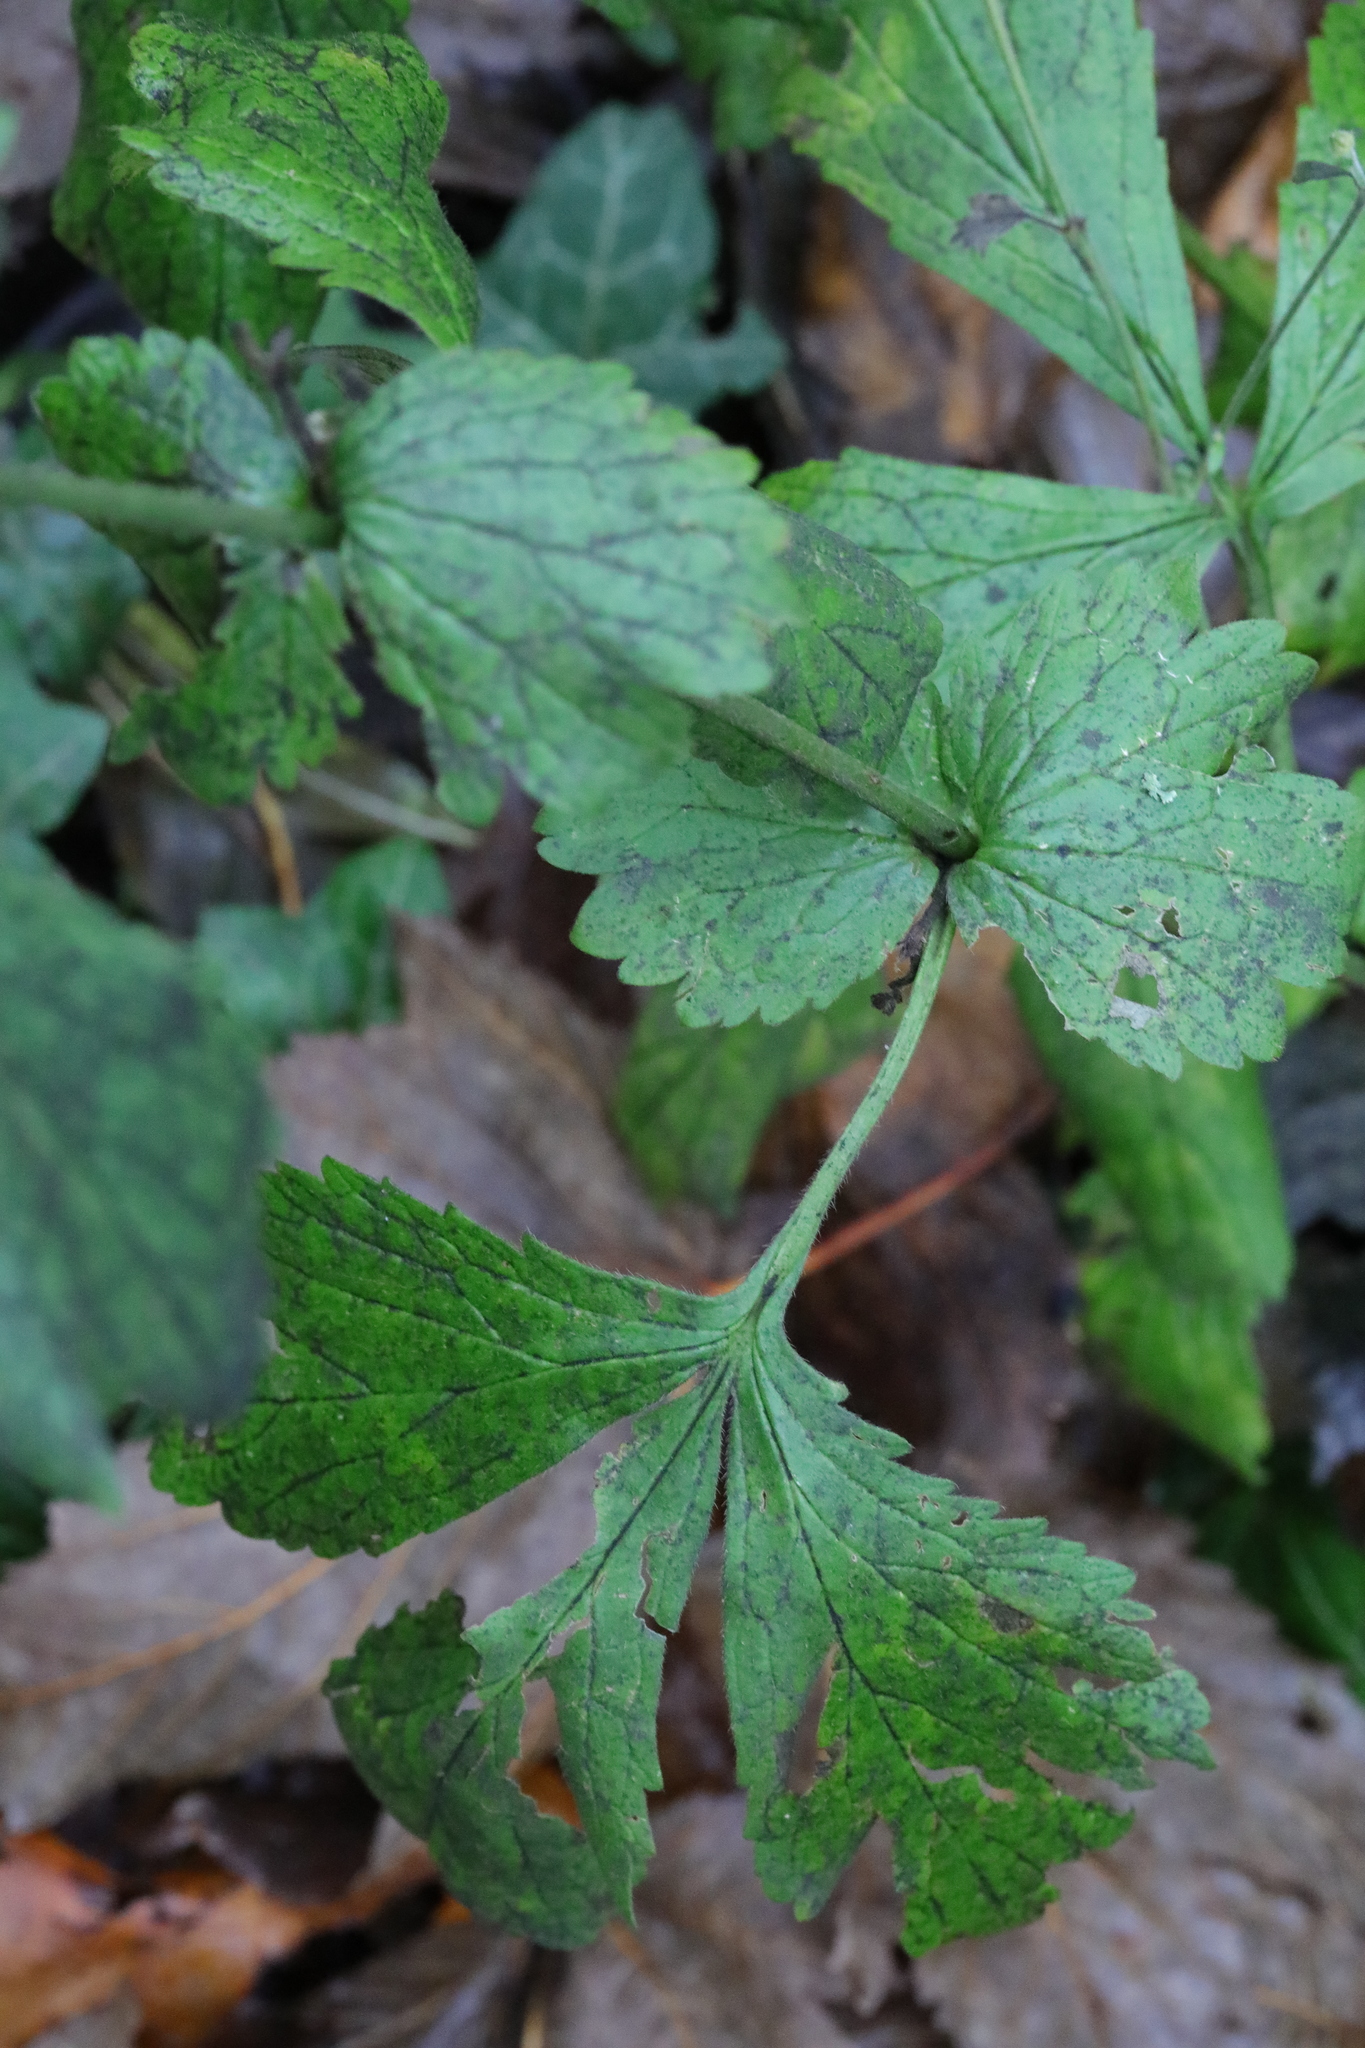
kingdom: Plantae
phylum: Tracheophyta
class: Magnoliopsida
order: Rosales
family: Rosaceae
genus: Geum
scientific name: Geum urbanum
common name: Wood avens
